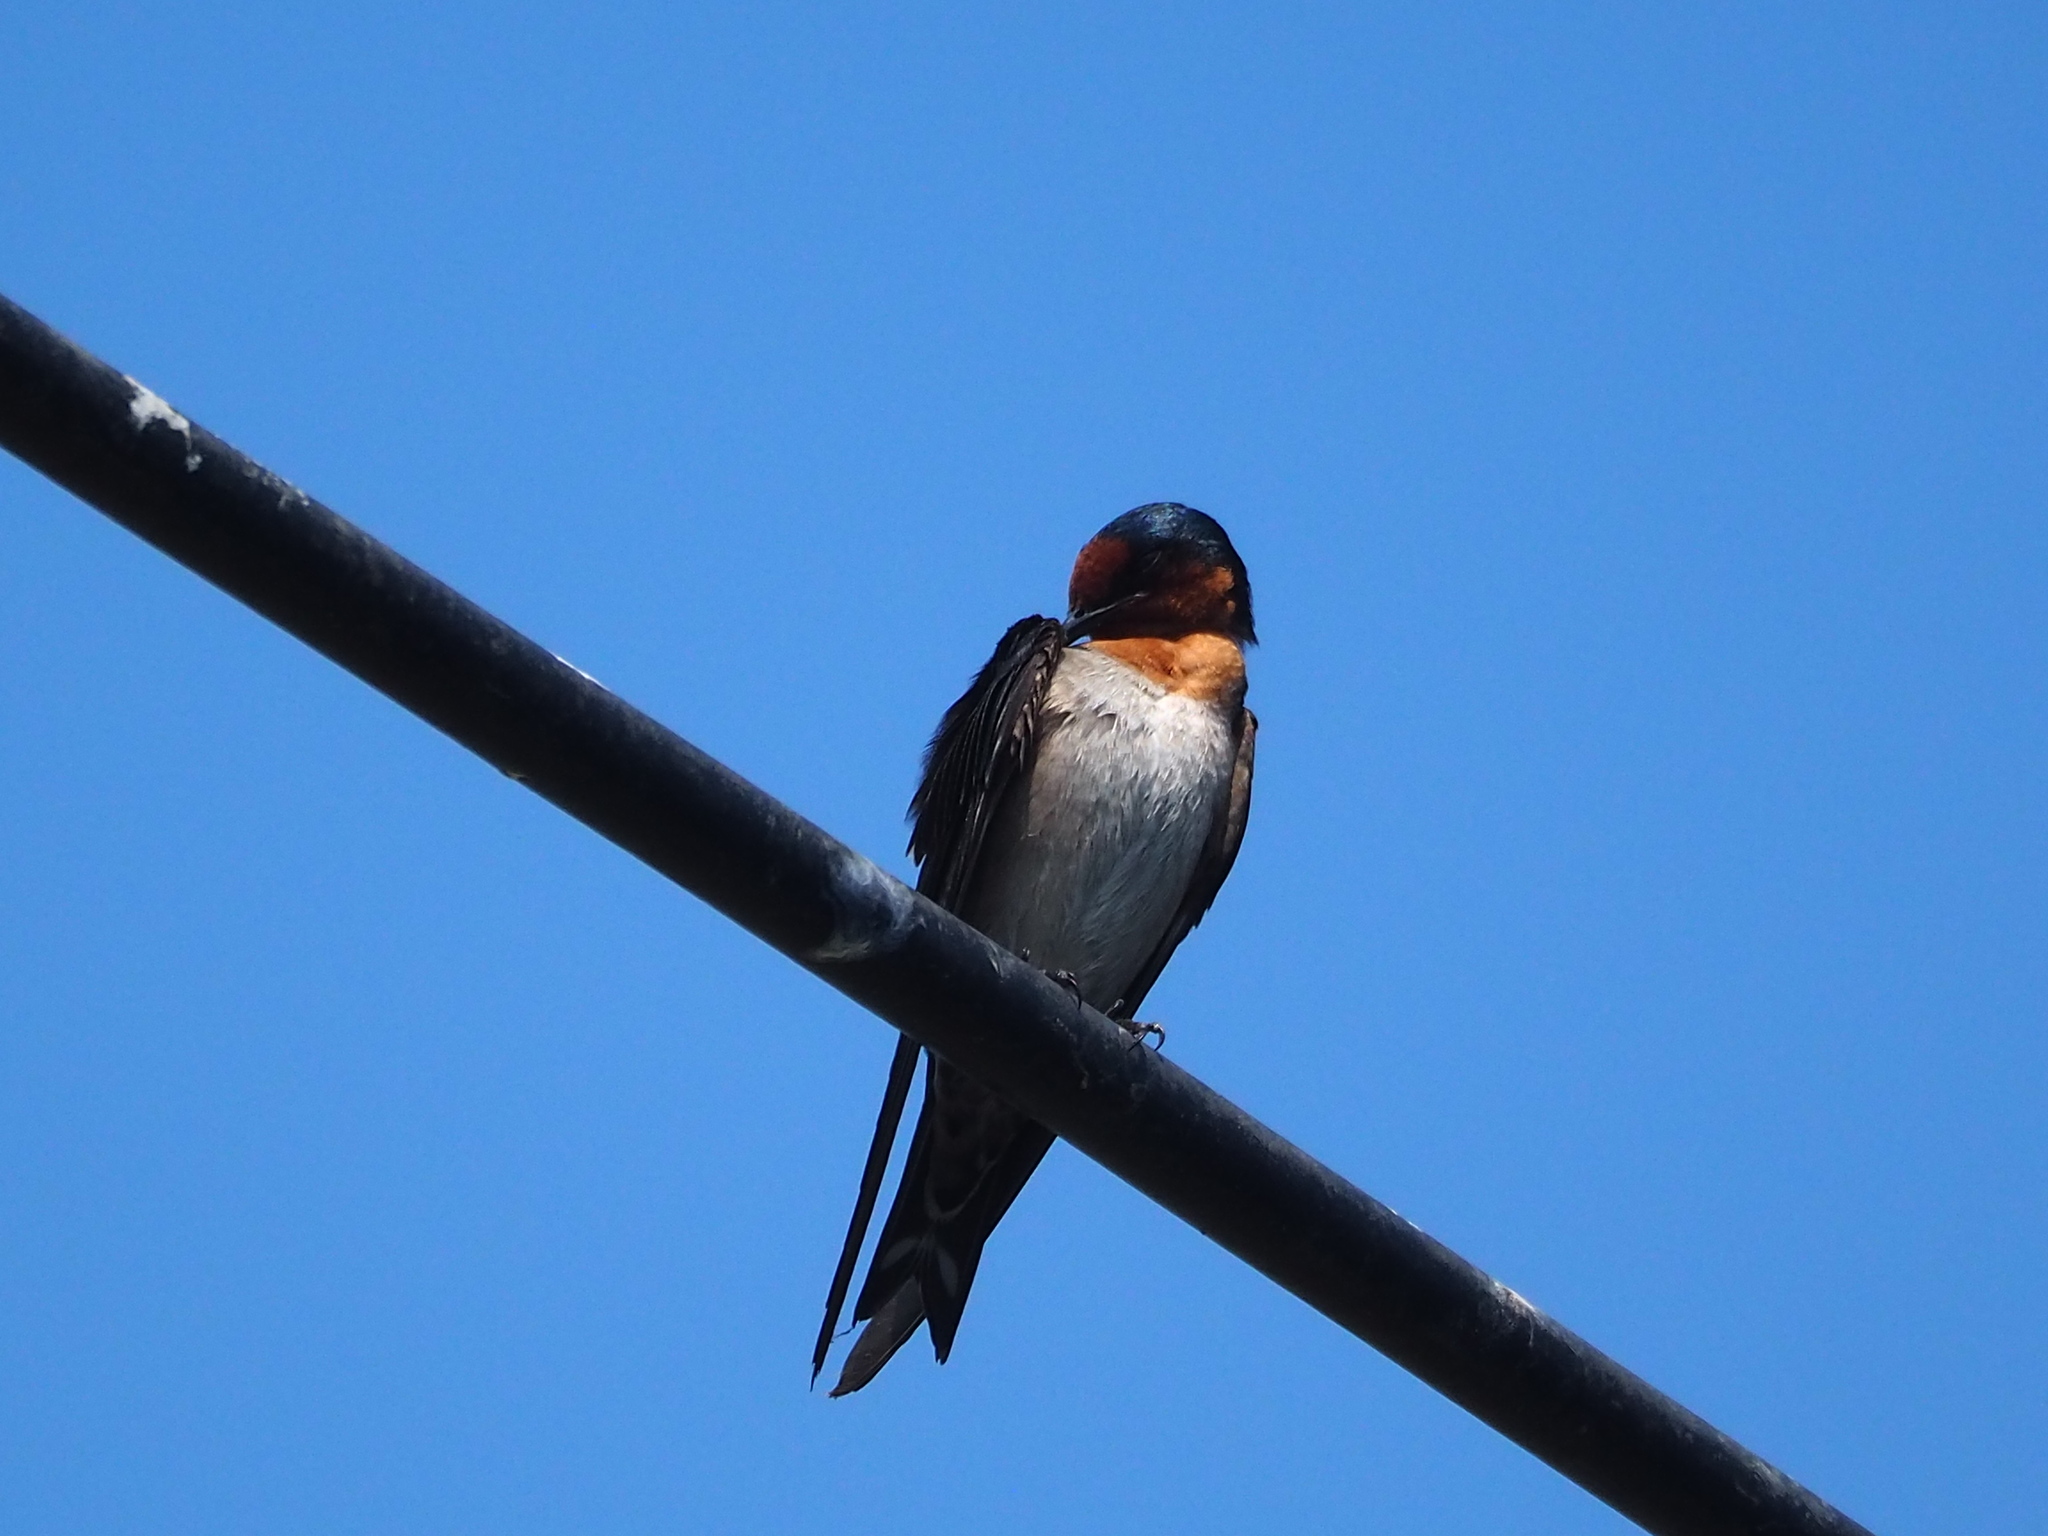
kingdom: Animalia
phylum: Chordata
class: Aves
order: Passeriformes
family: Hirundinidae
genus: Hirundo
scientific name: Hirundo tahitica
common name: Pacific swallow
